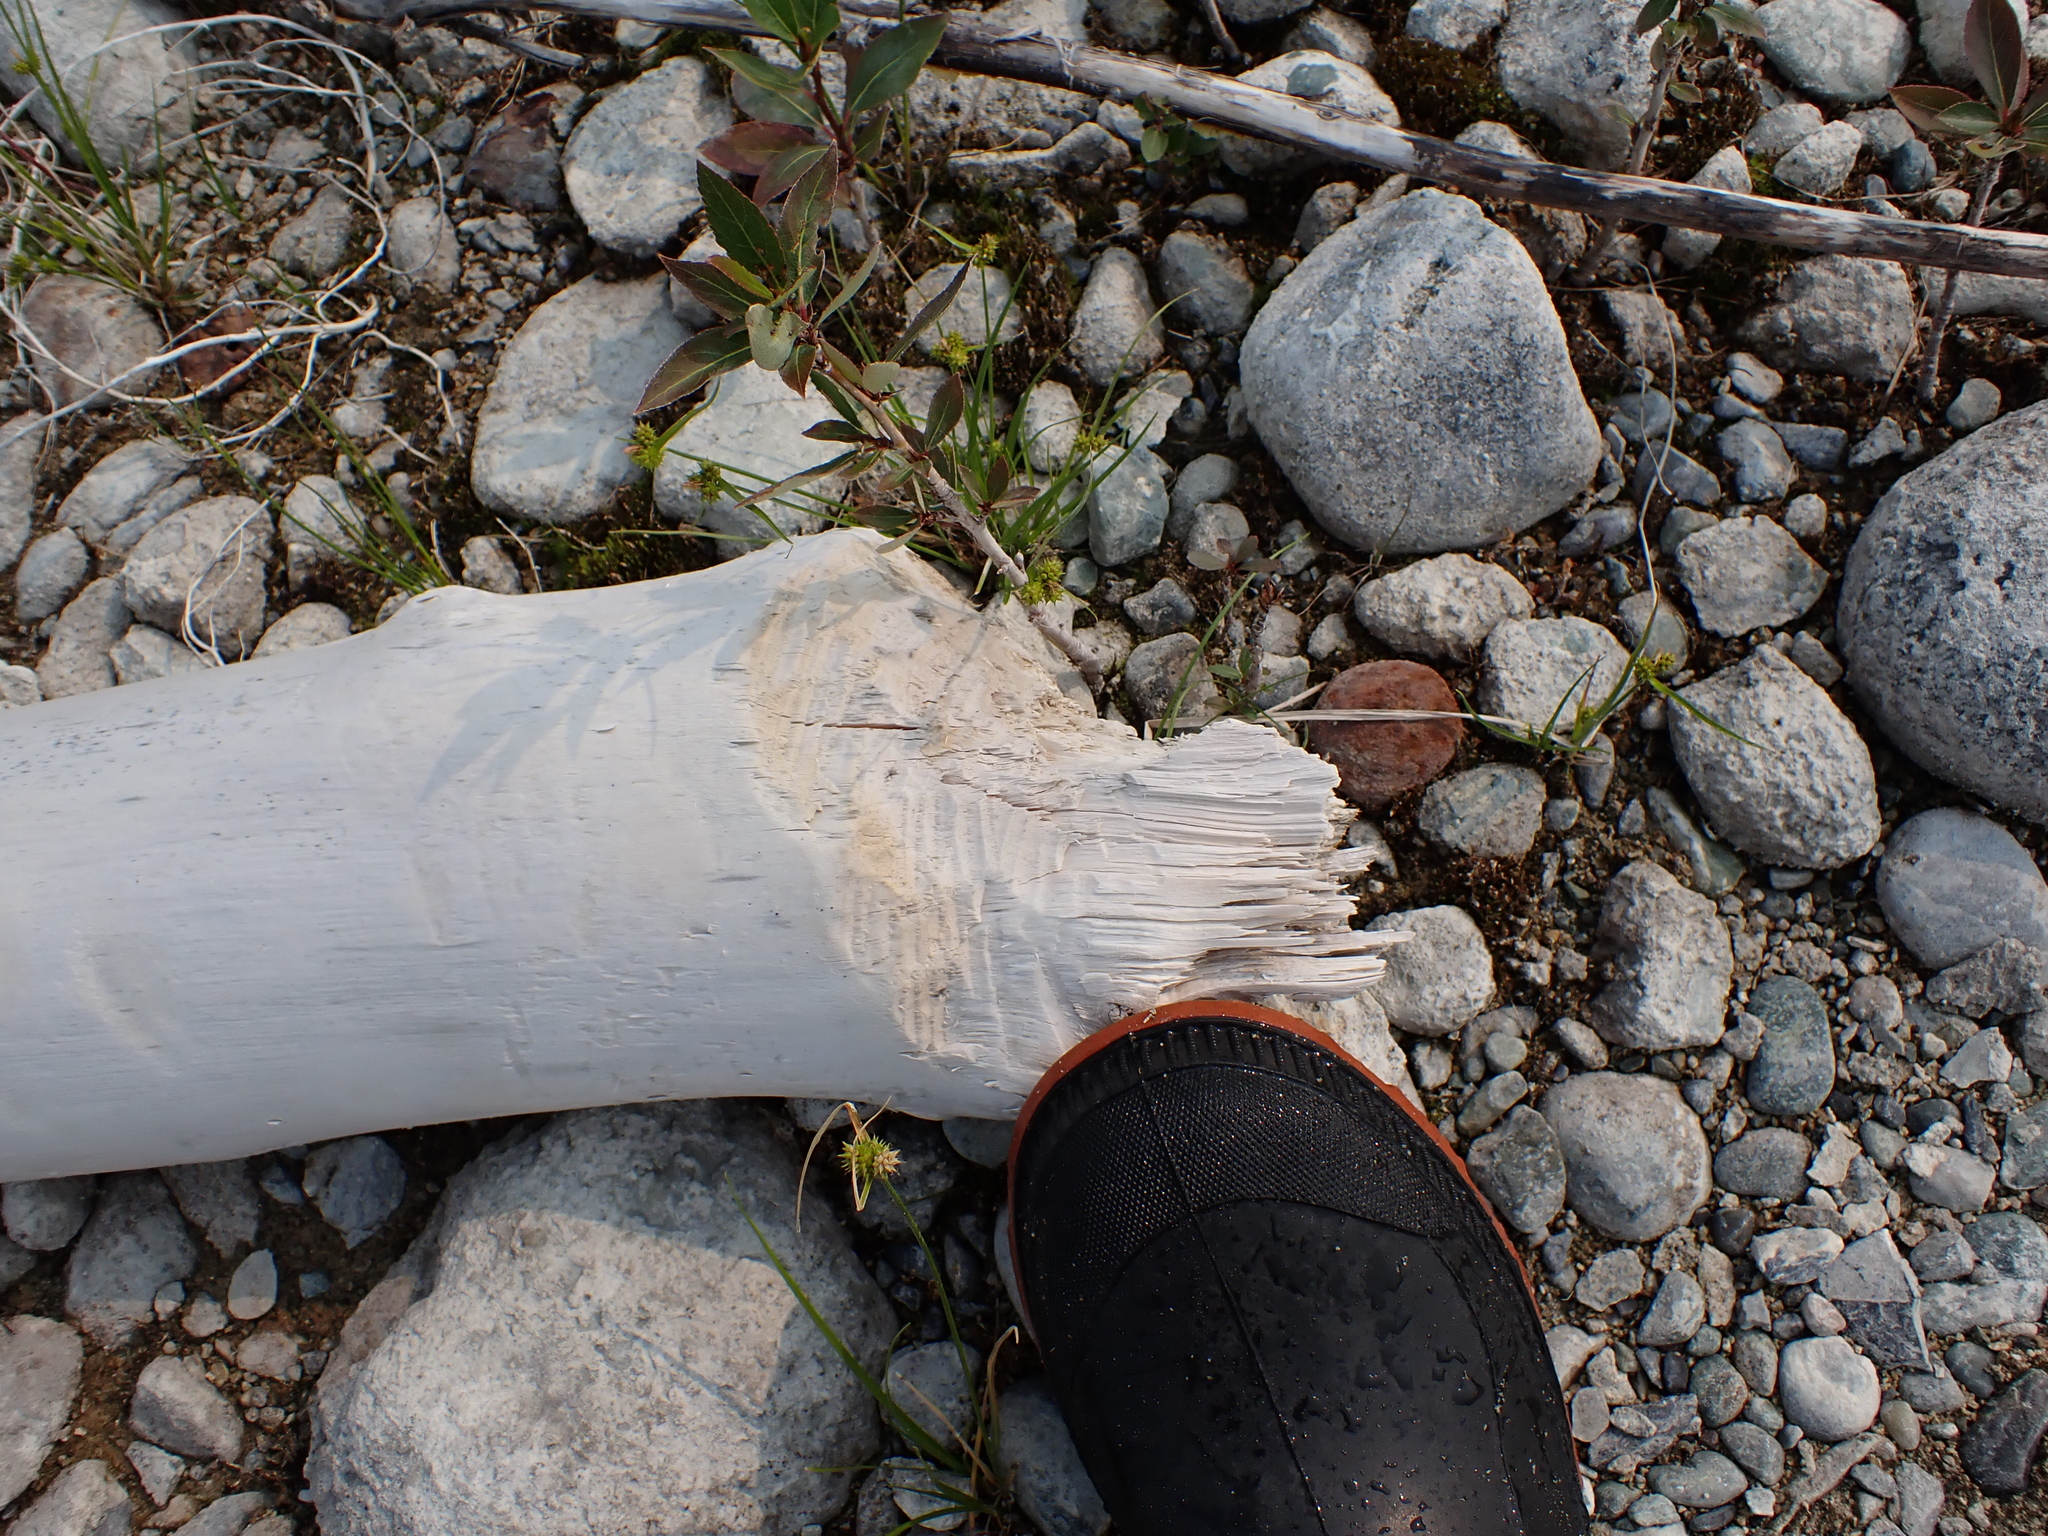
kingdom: Animalia
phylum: Chordata
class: Mammalia
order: Rodentia
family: Castoridae
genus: Castor
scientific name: Castor canadensis
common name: American beaver
